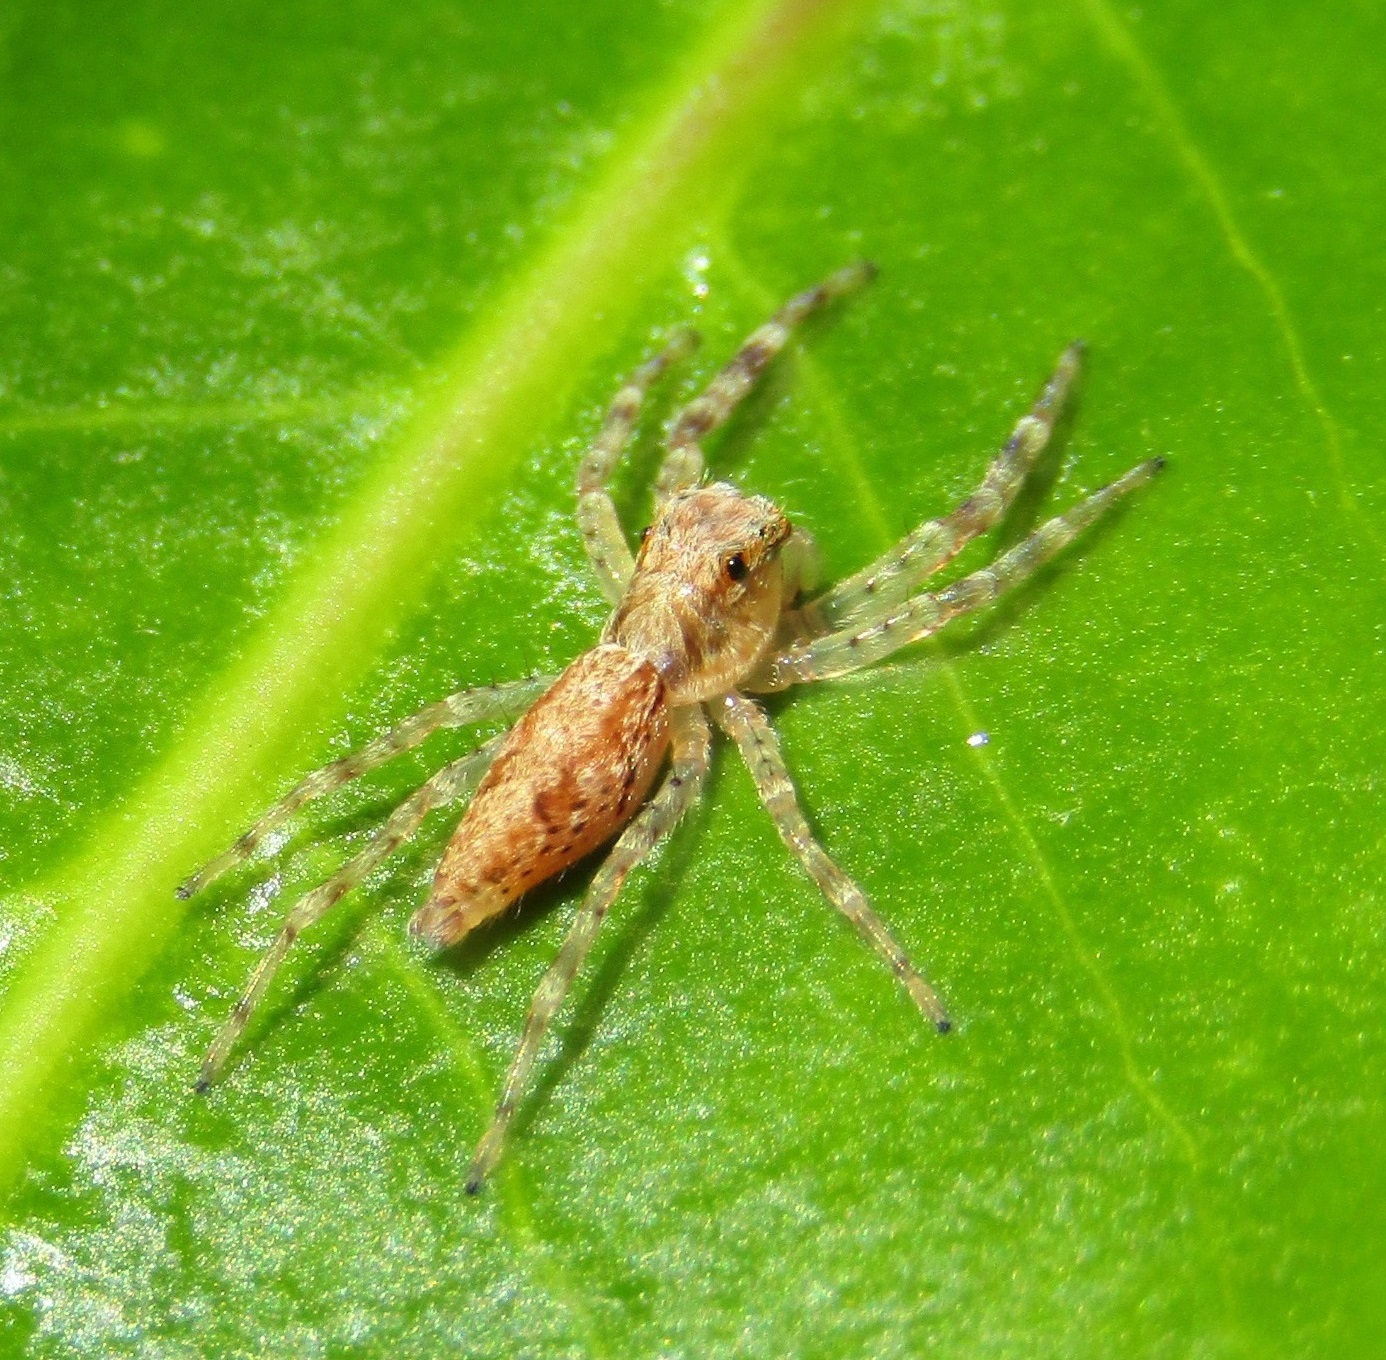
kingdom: Animalia
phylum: Arthropoda
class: Arachnida
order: Araneae
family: Salticidae
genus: Helpis
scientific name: Helpis minitabunda
